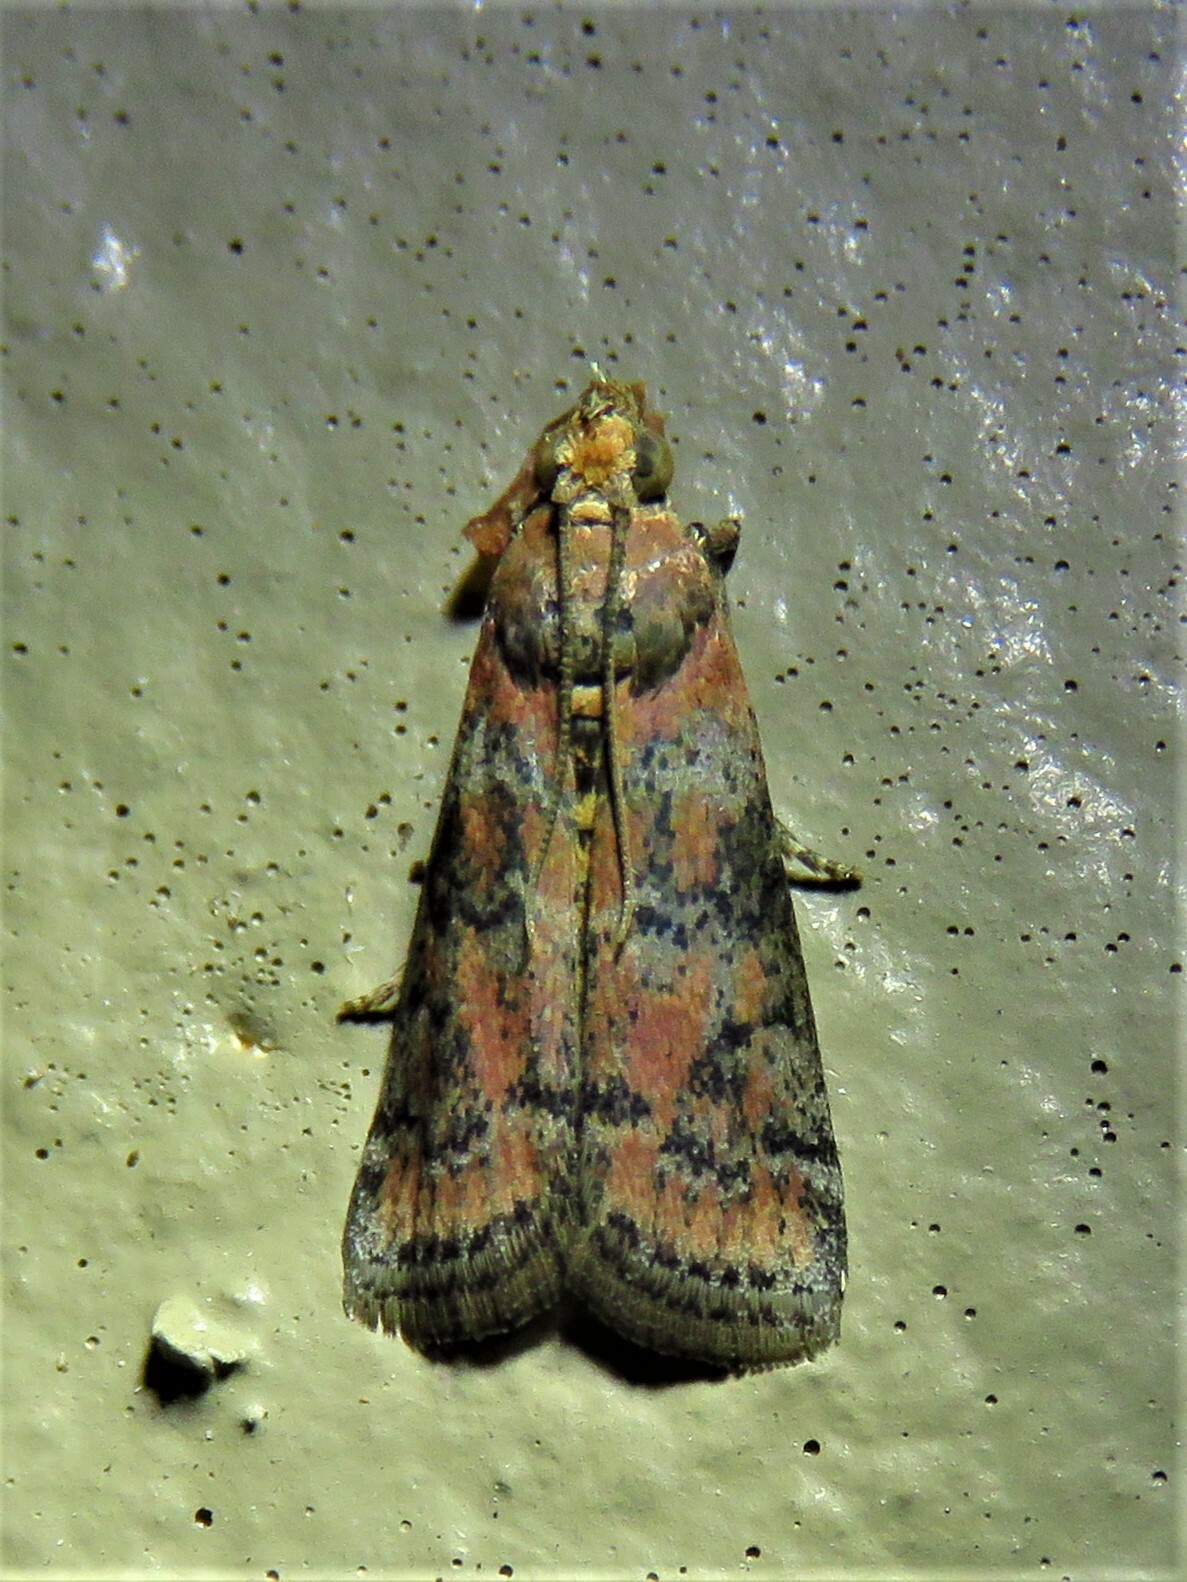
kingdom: Animalia
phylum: Arthropoda
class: Insecta
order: Lepidoptera
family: Pyralidae
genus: Sciota
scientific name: Sciota
